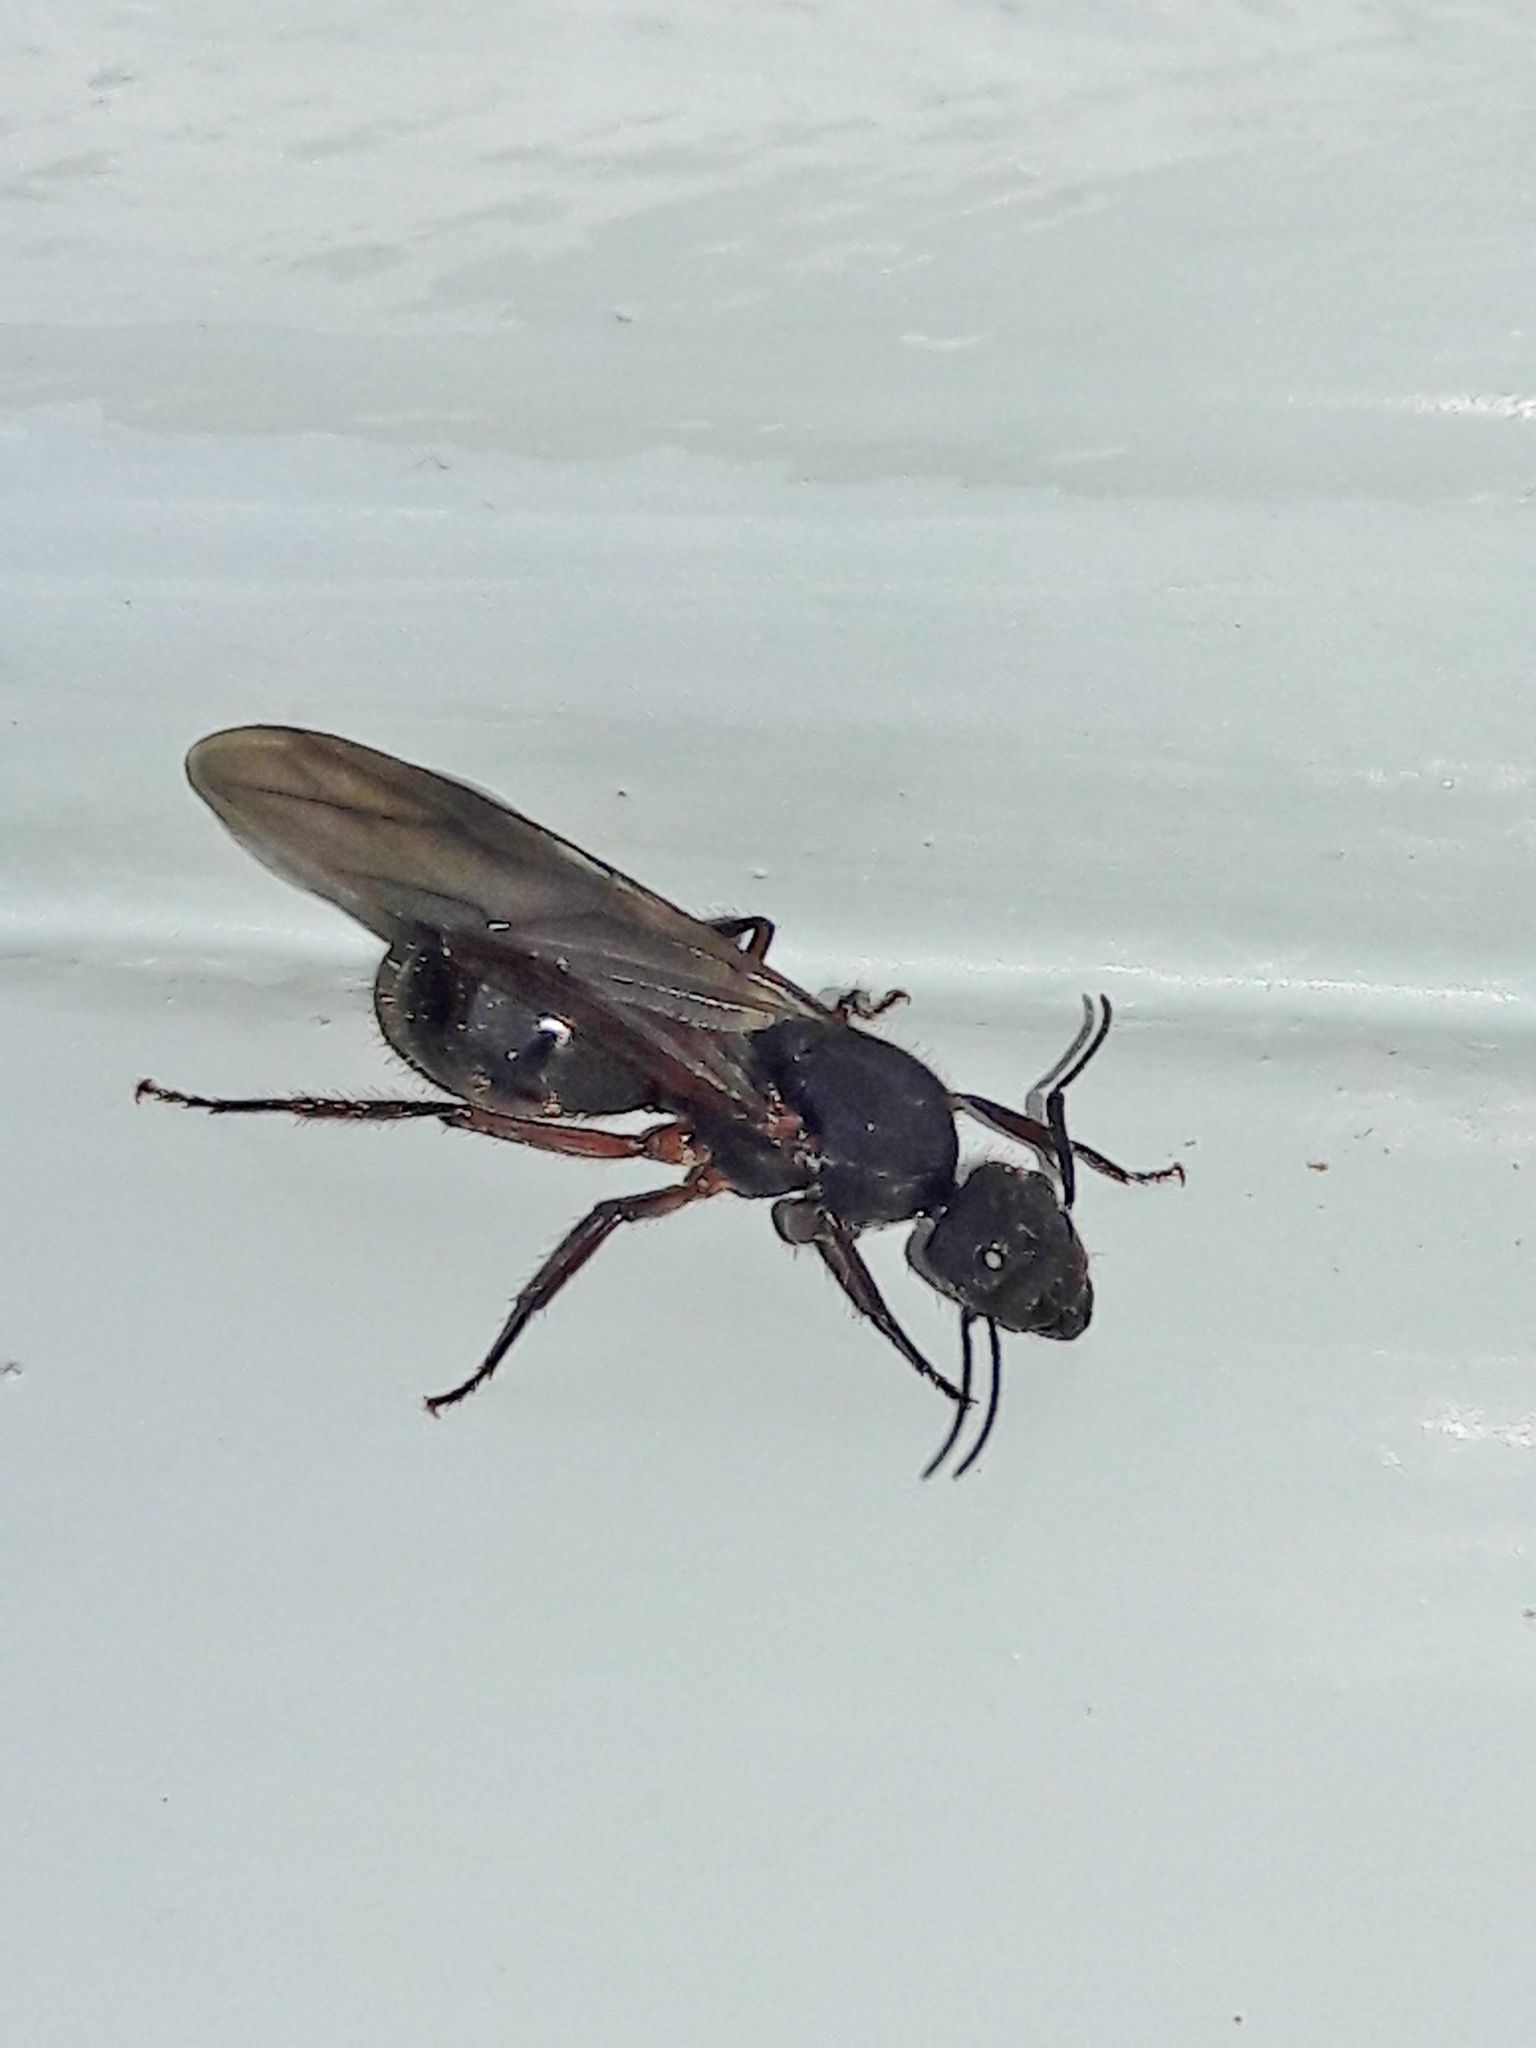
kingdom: Animalia
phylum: Arthropoda
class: Insecta
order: Hymenoptera
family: Formicidae
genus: Camponotus
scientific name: Camponotus rufipes
